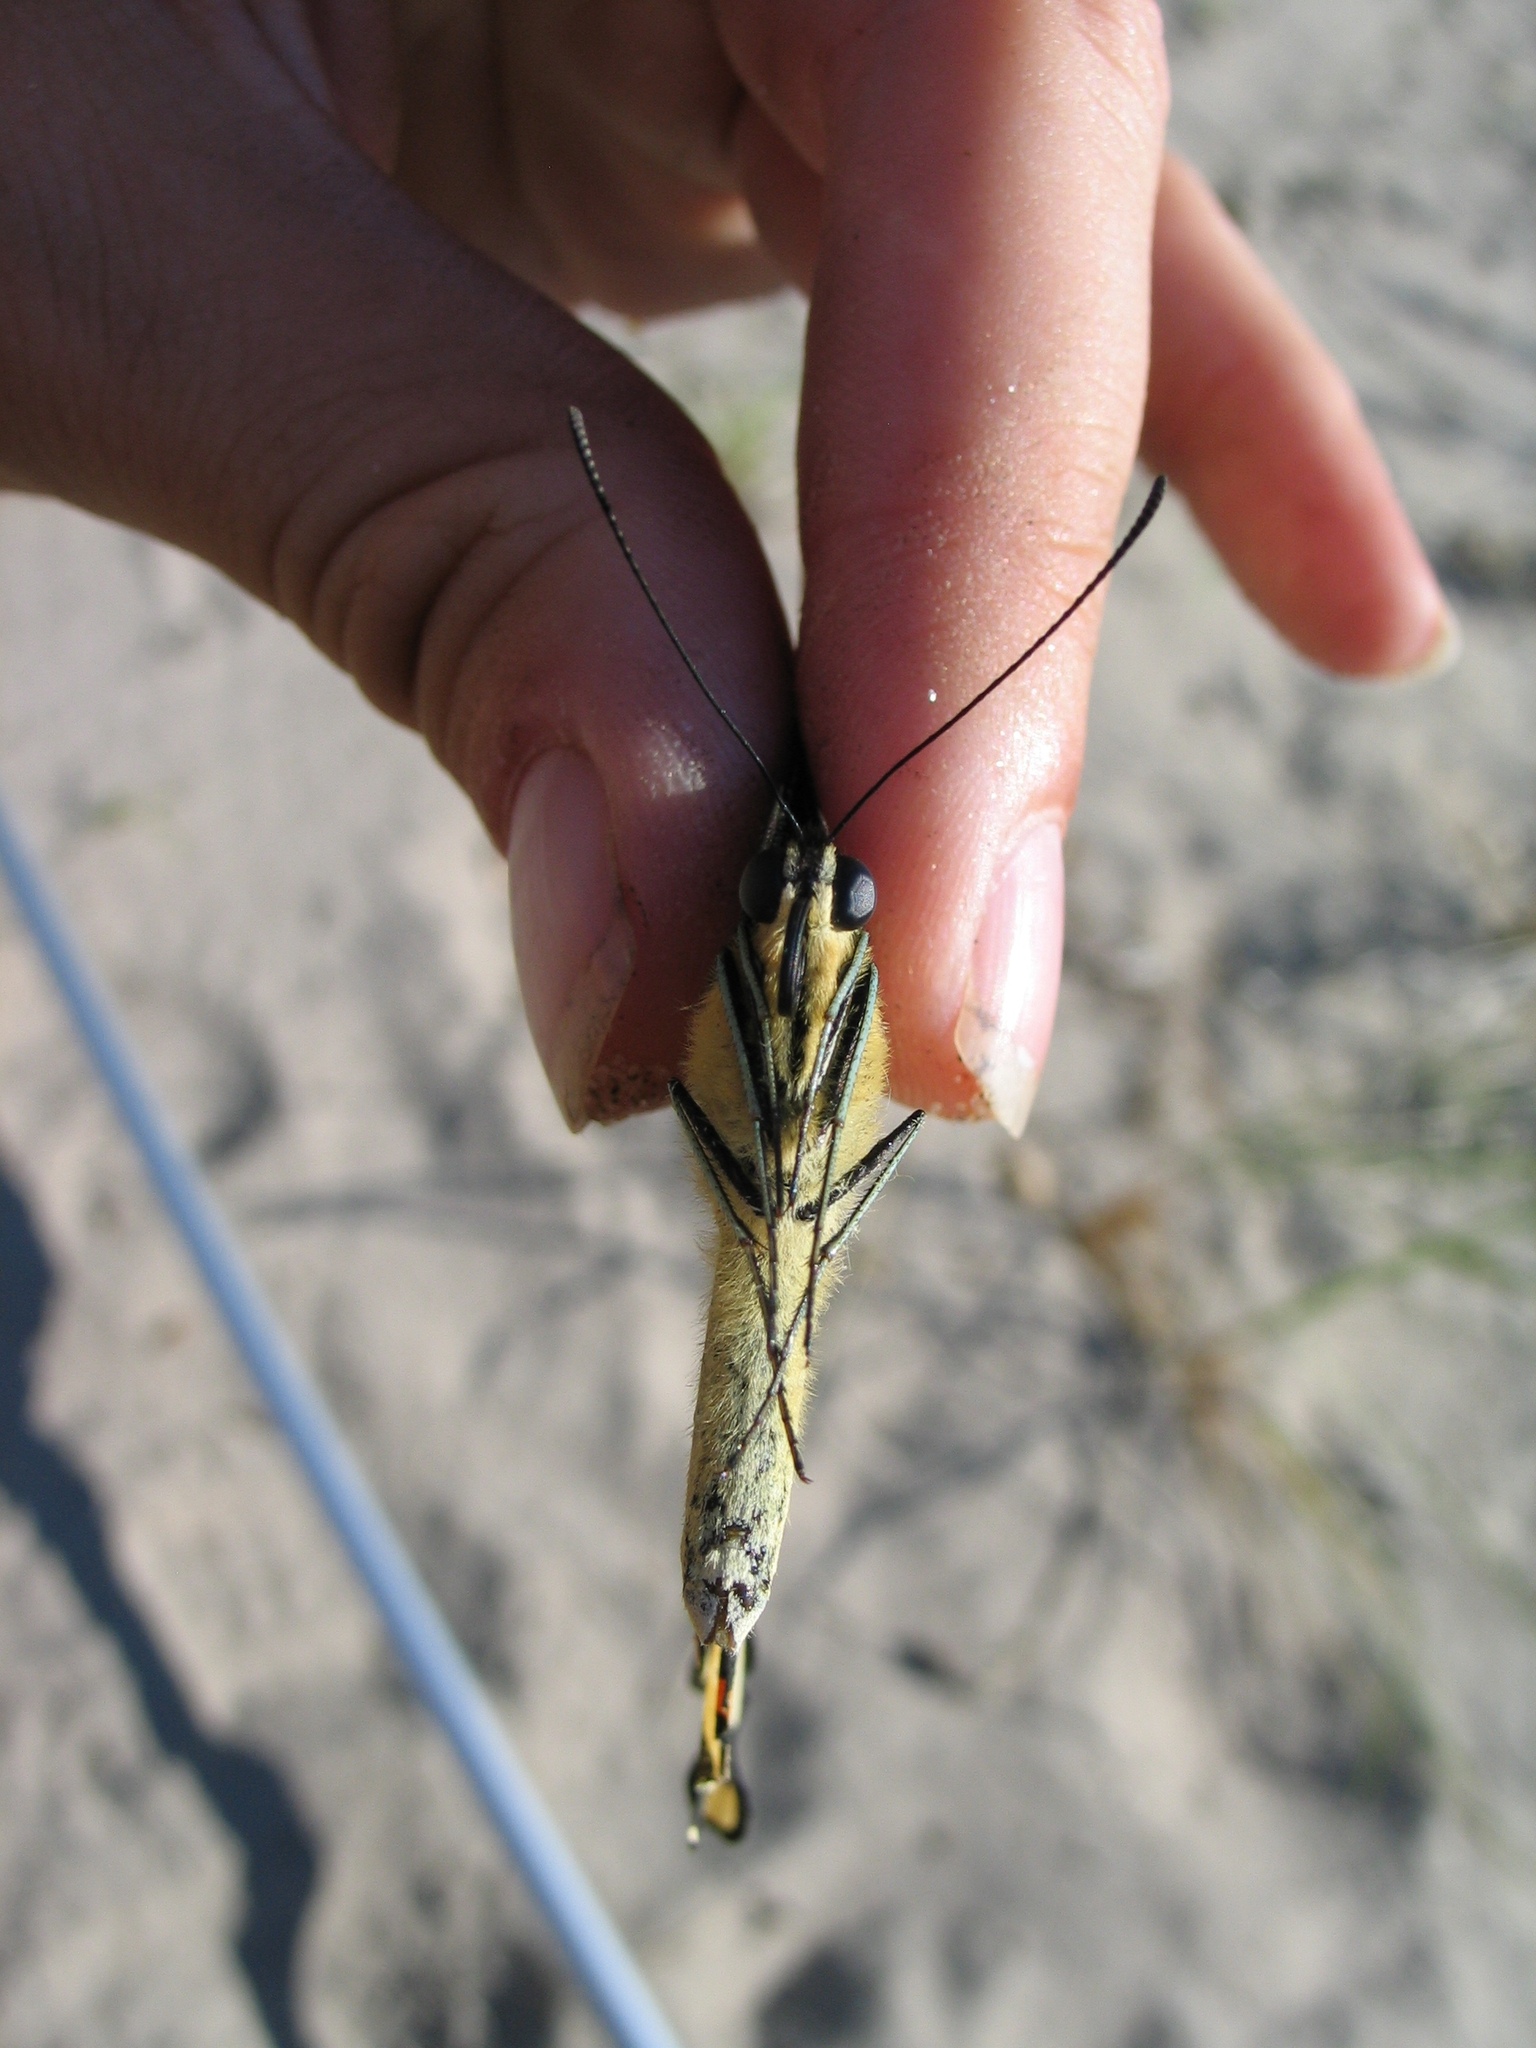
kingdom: Animalia
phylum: Arthropoda
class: Insecta
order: Lepidoptera
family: Papilionidae
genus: Papilio
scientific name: Papilio cresphontes
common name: Giant swallowtail
